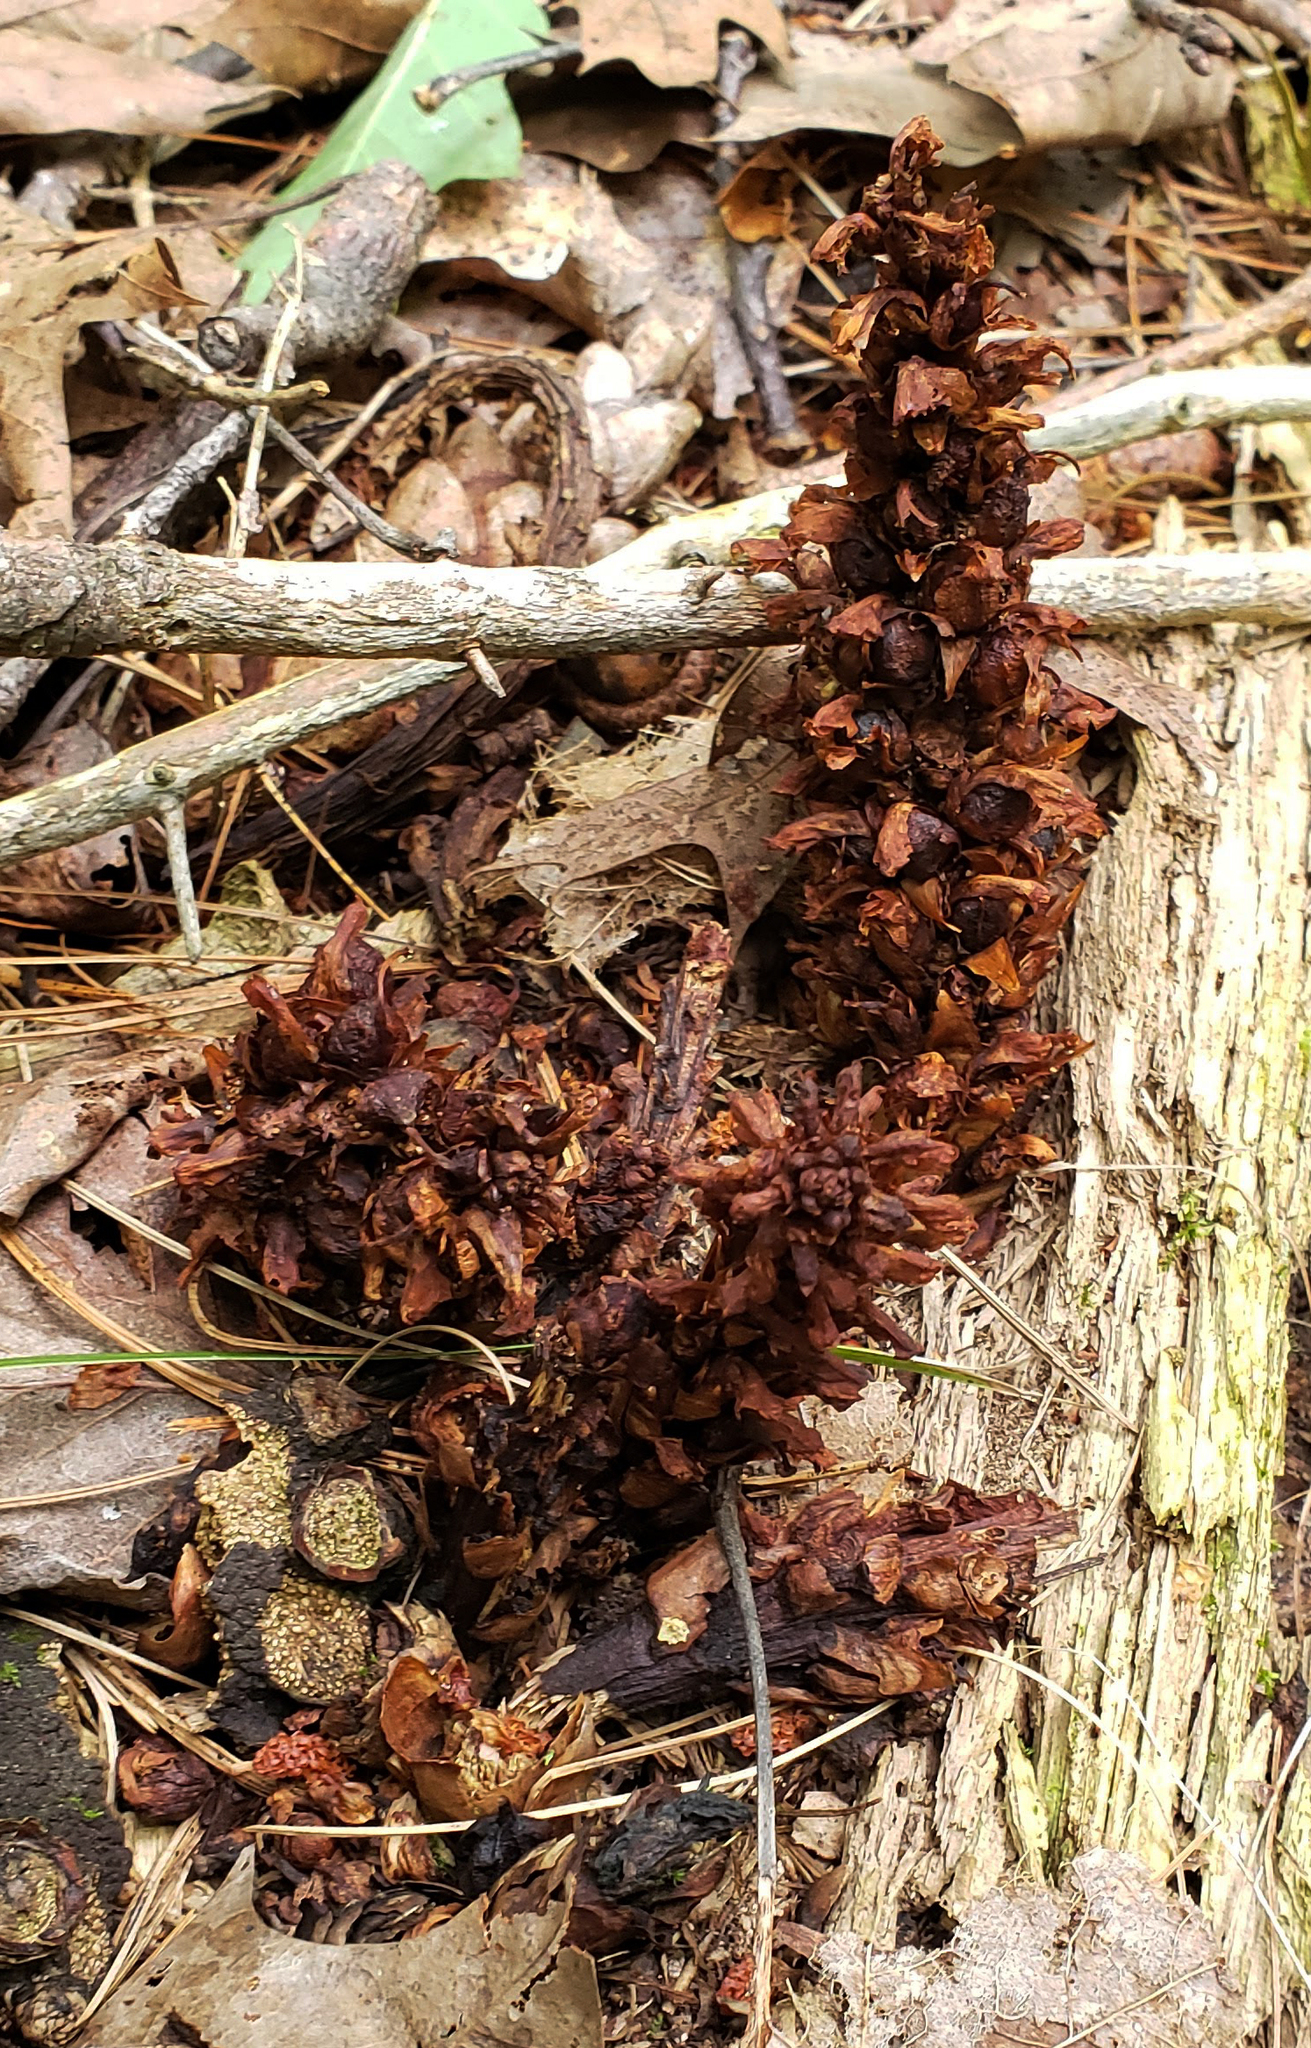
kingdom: Plantae
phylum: Tracheophyta
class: Magnoliopsida
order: Lamiales
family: Orobanchaceae
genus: Conopholis
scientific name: Conopholis americana
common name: American cancer-root
